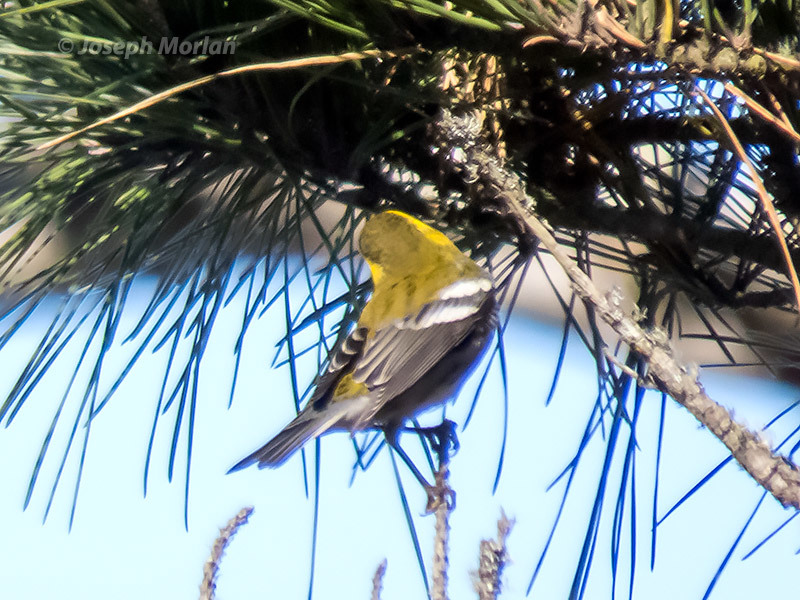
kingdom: Animalia
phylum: Chordata
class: Aves
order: Passeriformes
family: Parulidae
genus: Setophaga
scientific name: Setophaga townsendi
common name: Townsend's warbler
